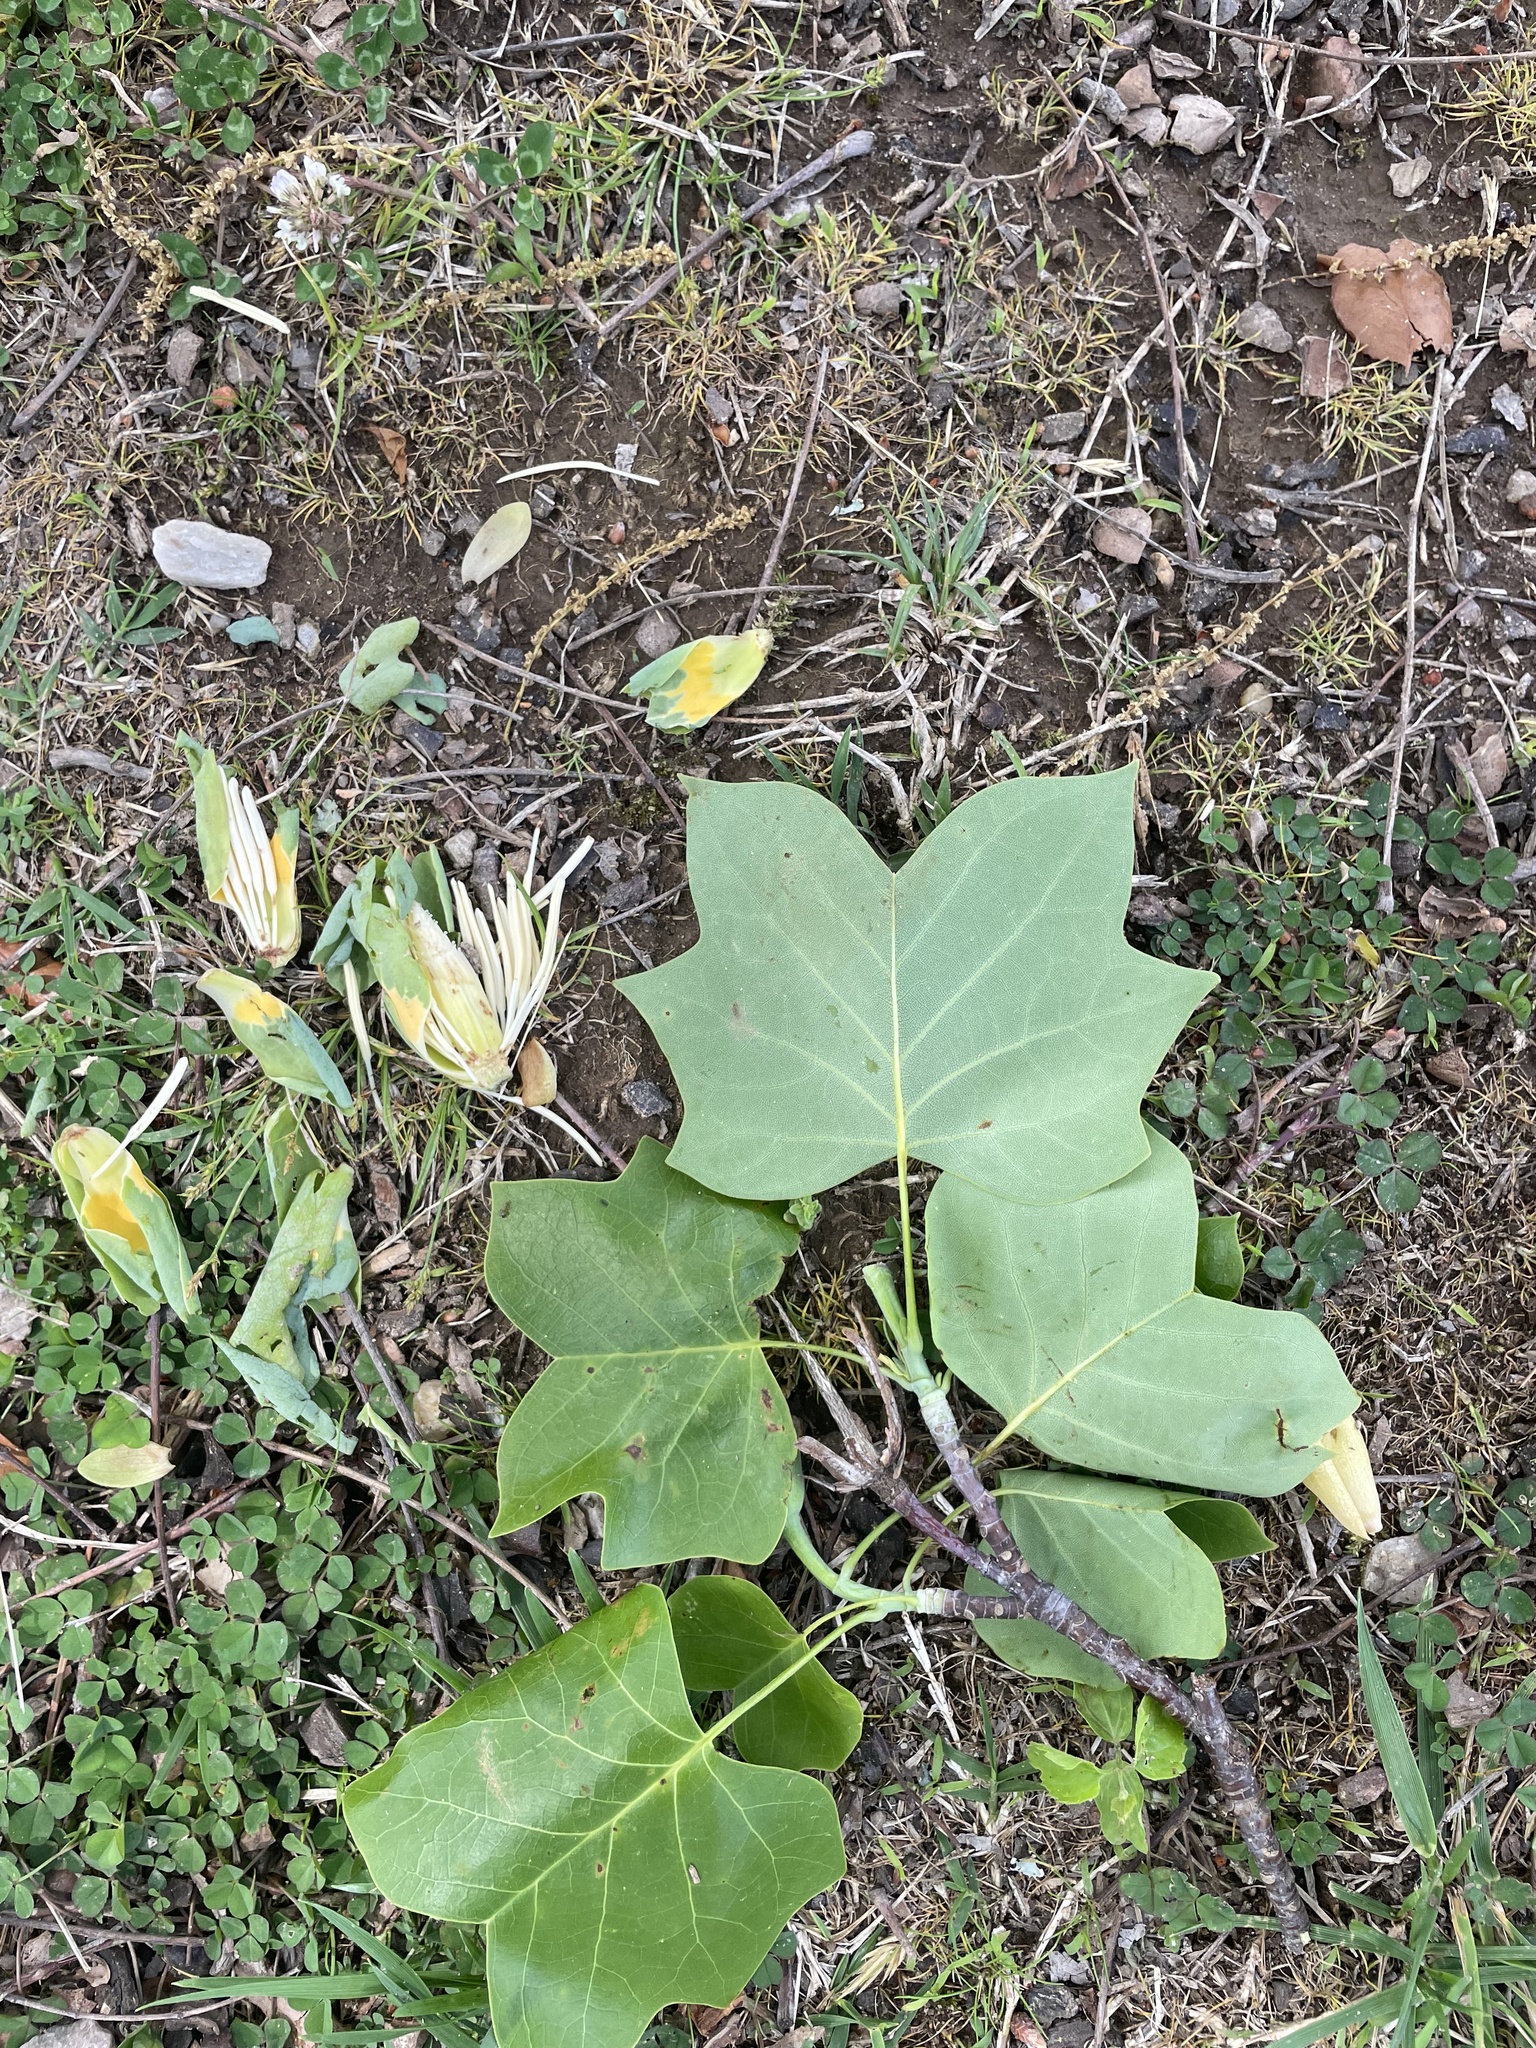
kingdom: Plantae
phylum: Tracheophyta
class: Magnoliopsida
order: Magnoliales
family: Magnoliaceae
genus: Liriodendron
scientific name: Liriodendron tulipifera
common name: Tulip tree
